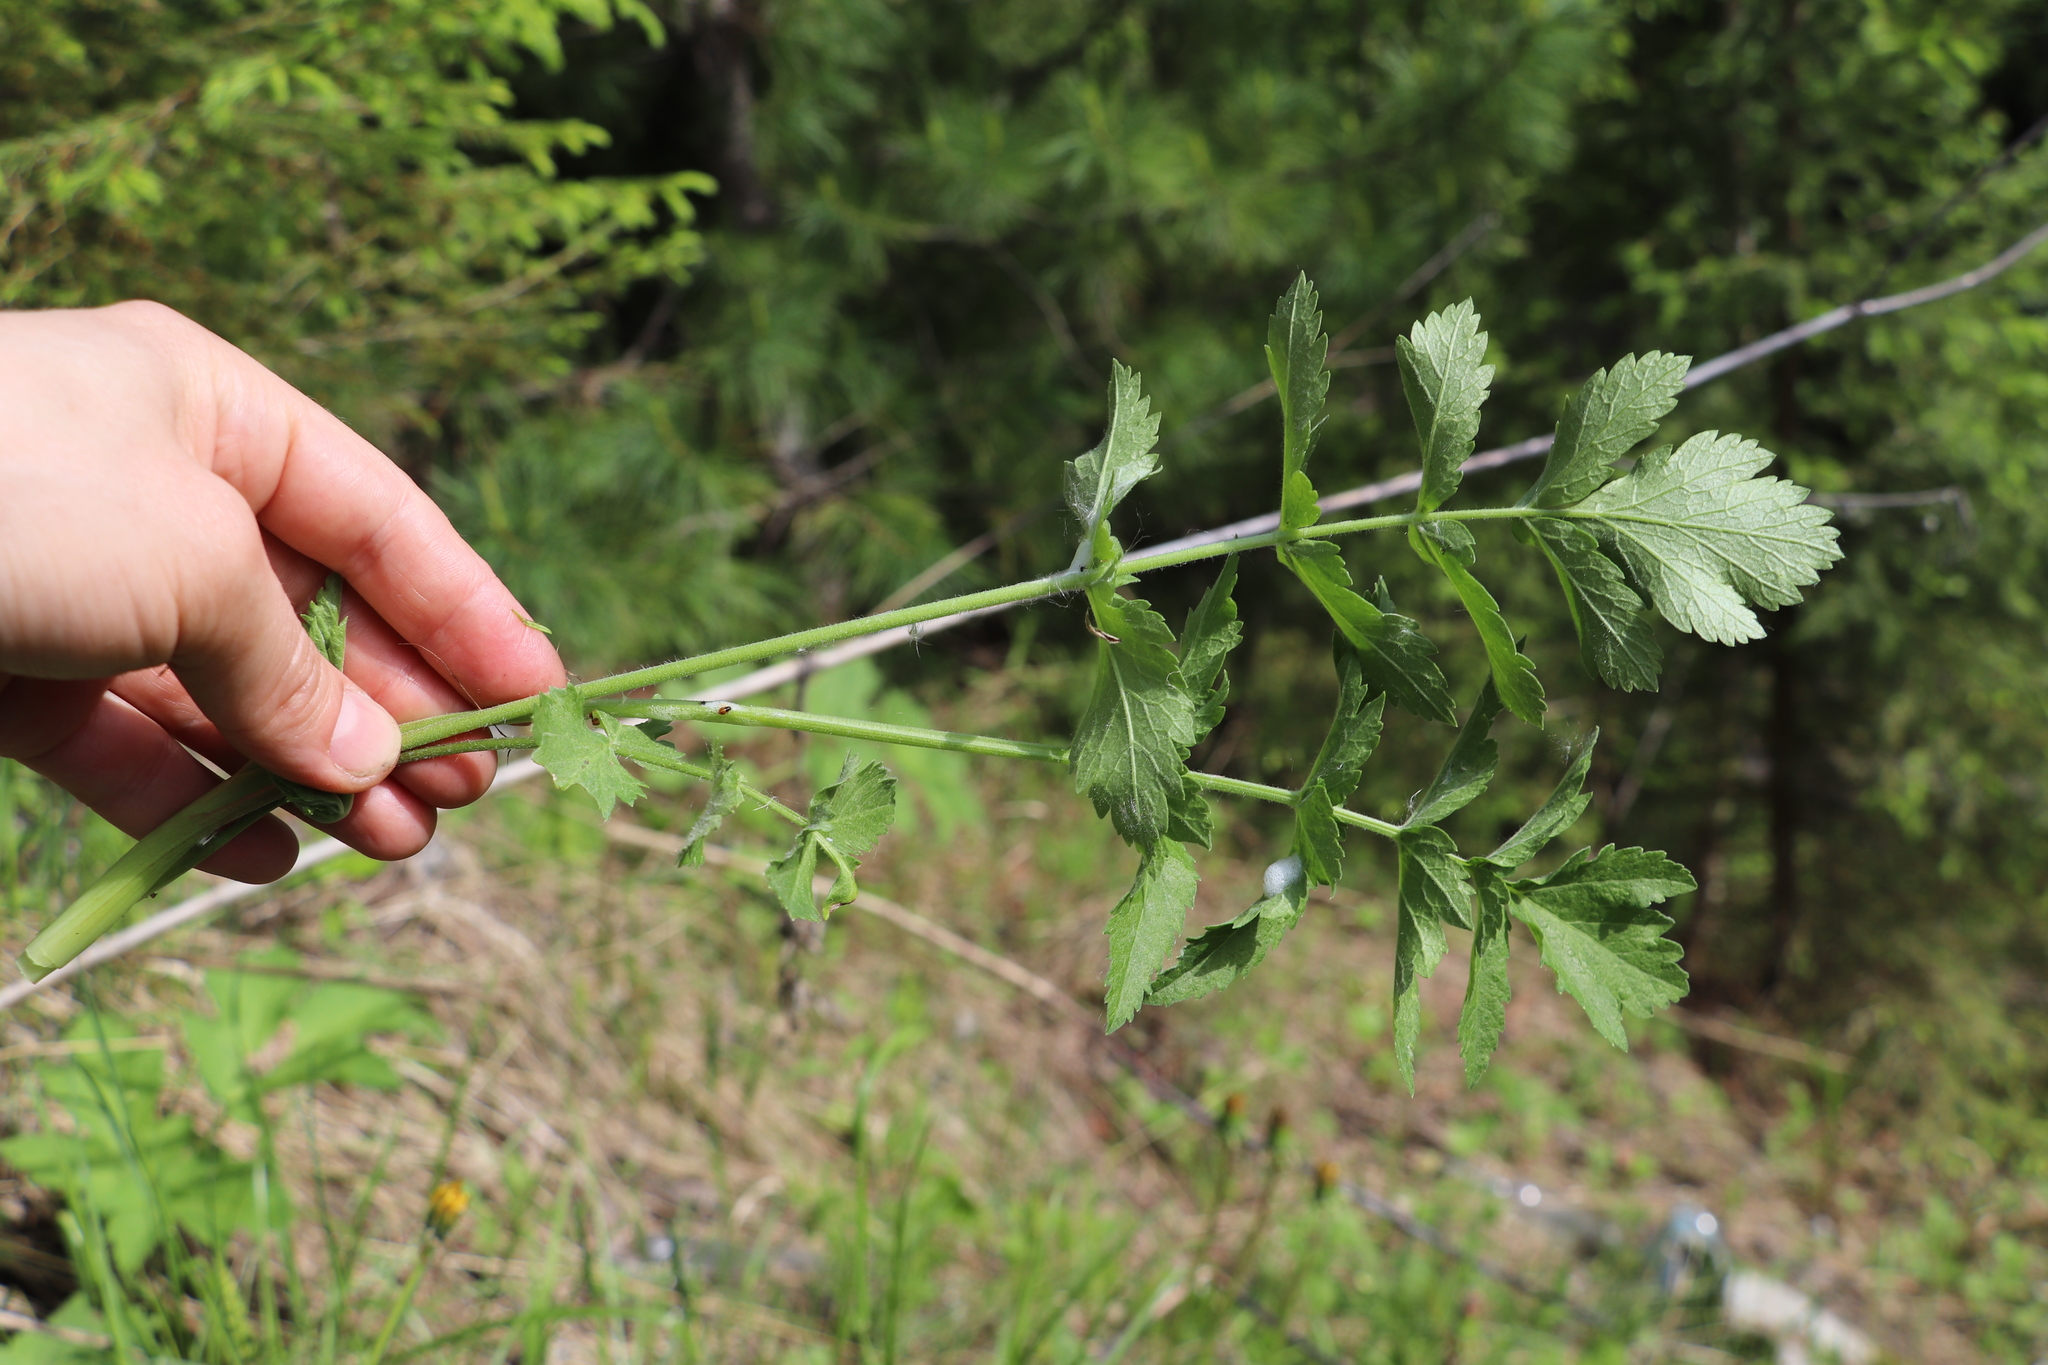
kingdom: Plantae
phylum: Tracheophyta
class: Magnoliopsida
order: Apiales
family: Apiaceae
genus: Pimpinella
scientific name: Pimpinella saxifraga
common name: Burnet-saxifrage
